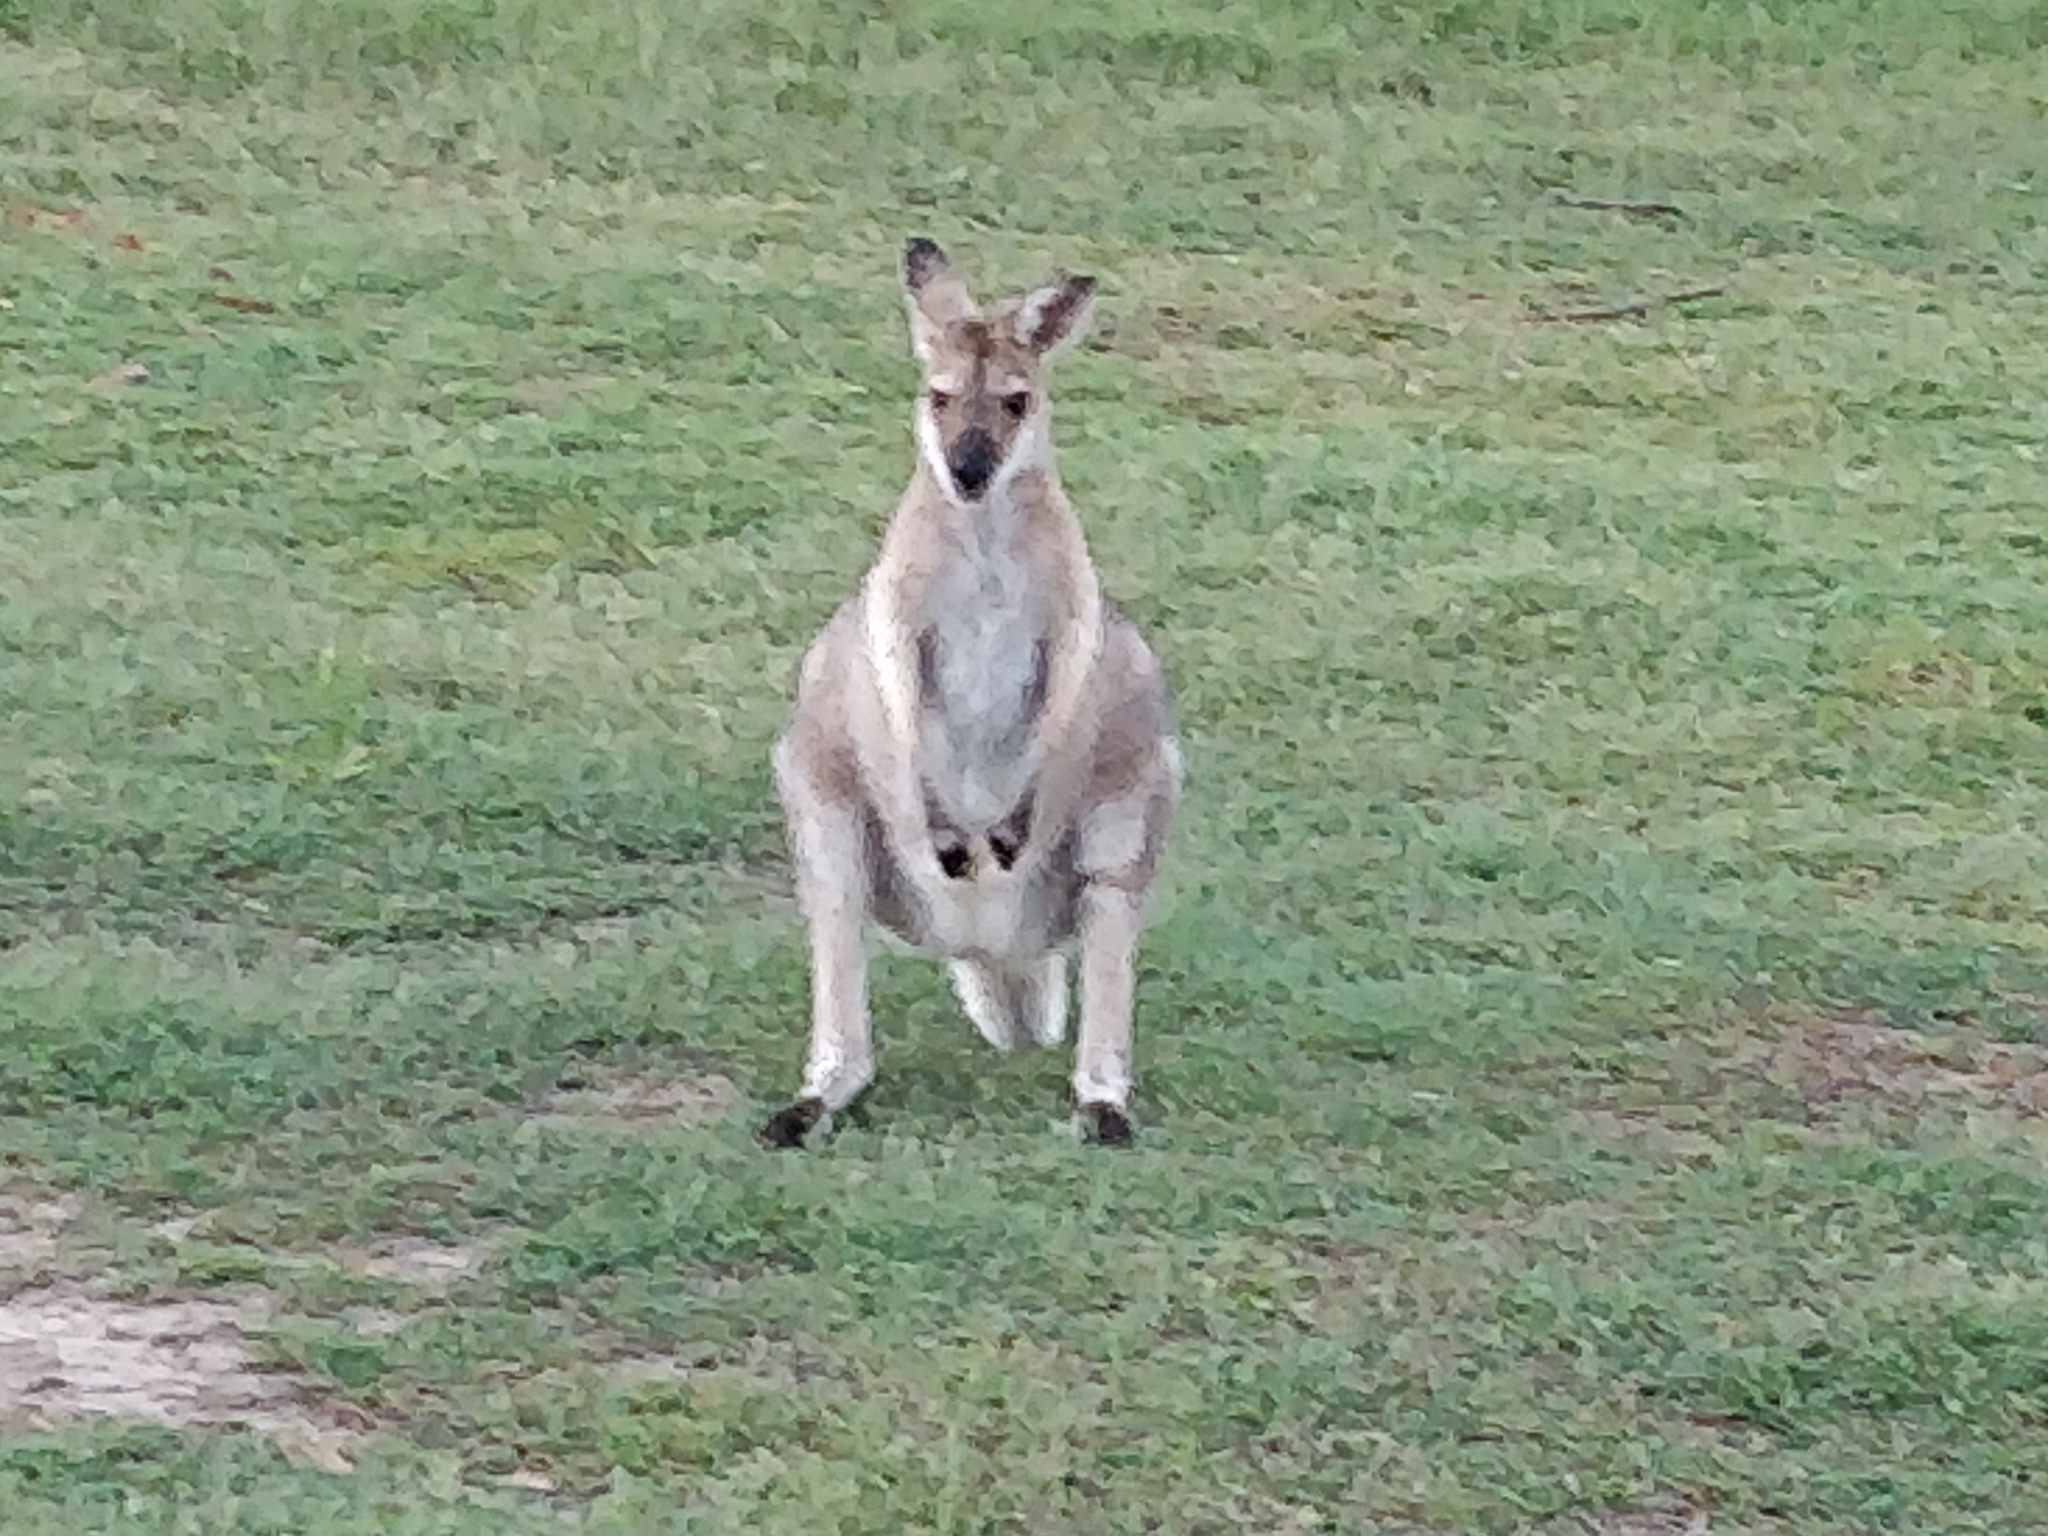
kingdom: Animalia
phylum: Chordata
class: Mammalia
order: Diprotodontia
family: Macropodidae
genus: Notamacropus
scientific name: Notamacropus rufogriseus
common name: Red-necked wallaby
